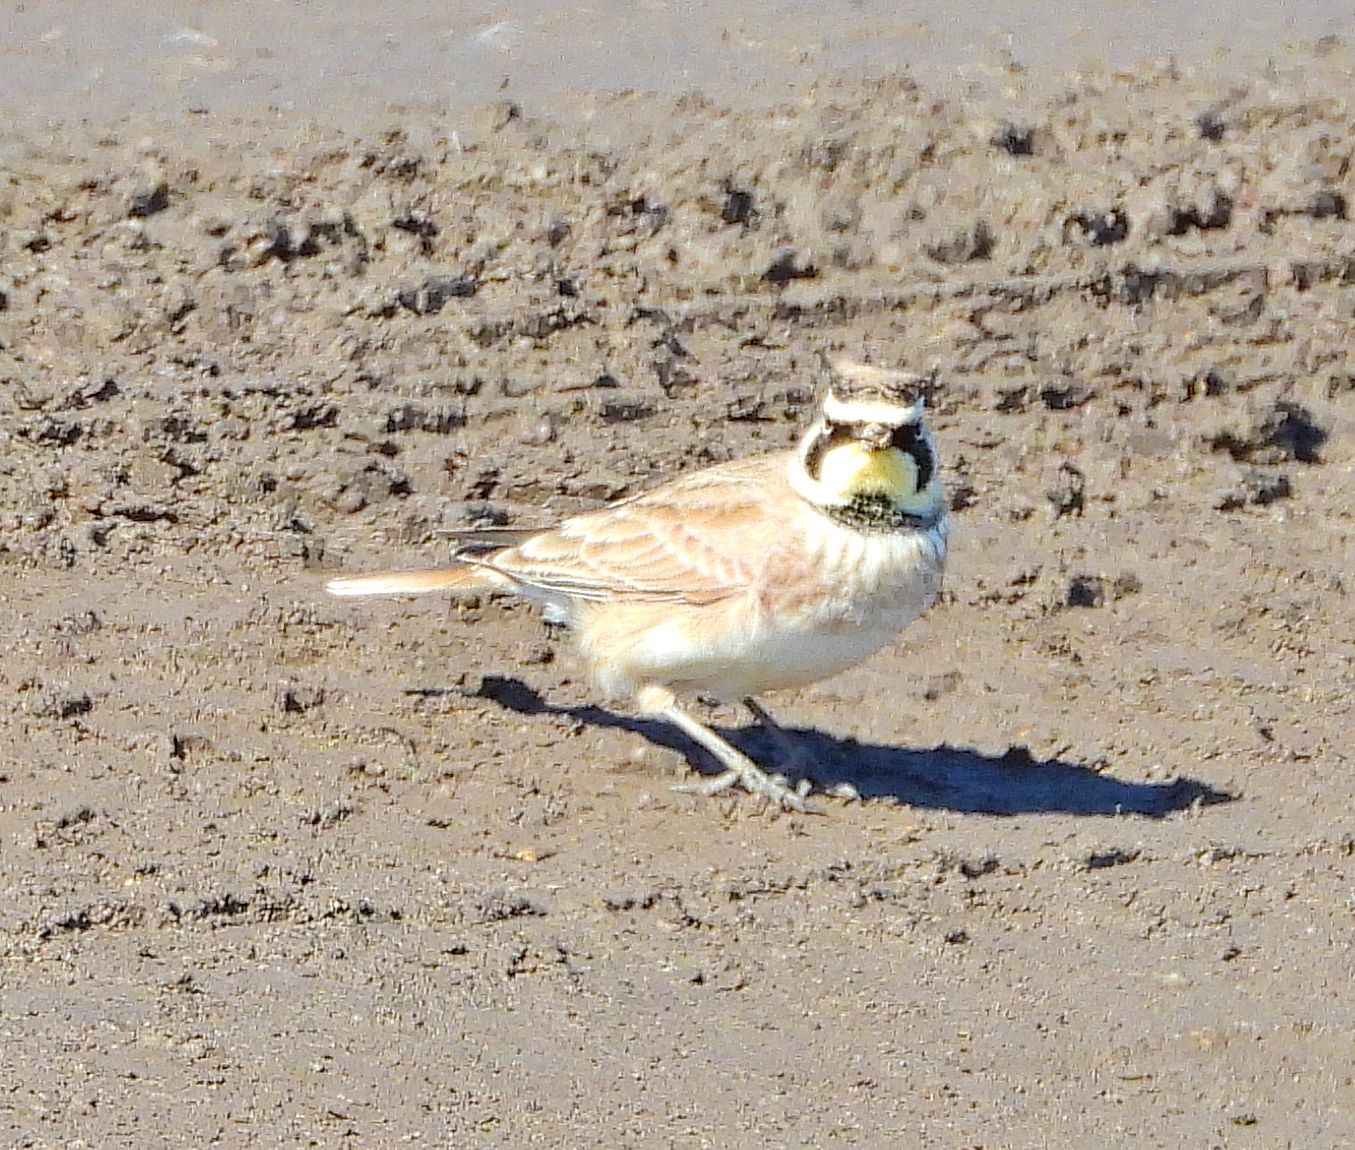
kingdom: Animalia
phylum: Chordata
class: Aves
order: Passeriformes
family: Alaudidae
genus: Eremophila
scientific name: Eremophila alpestris
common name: Horned lark
